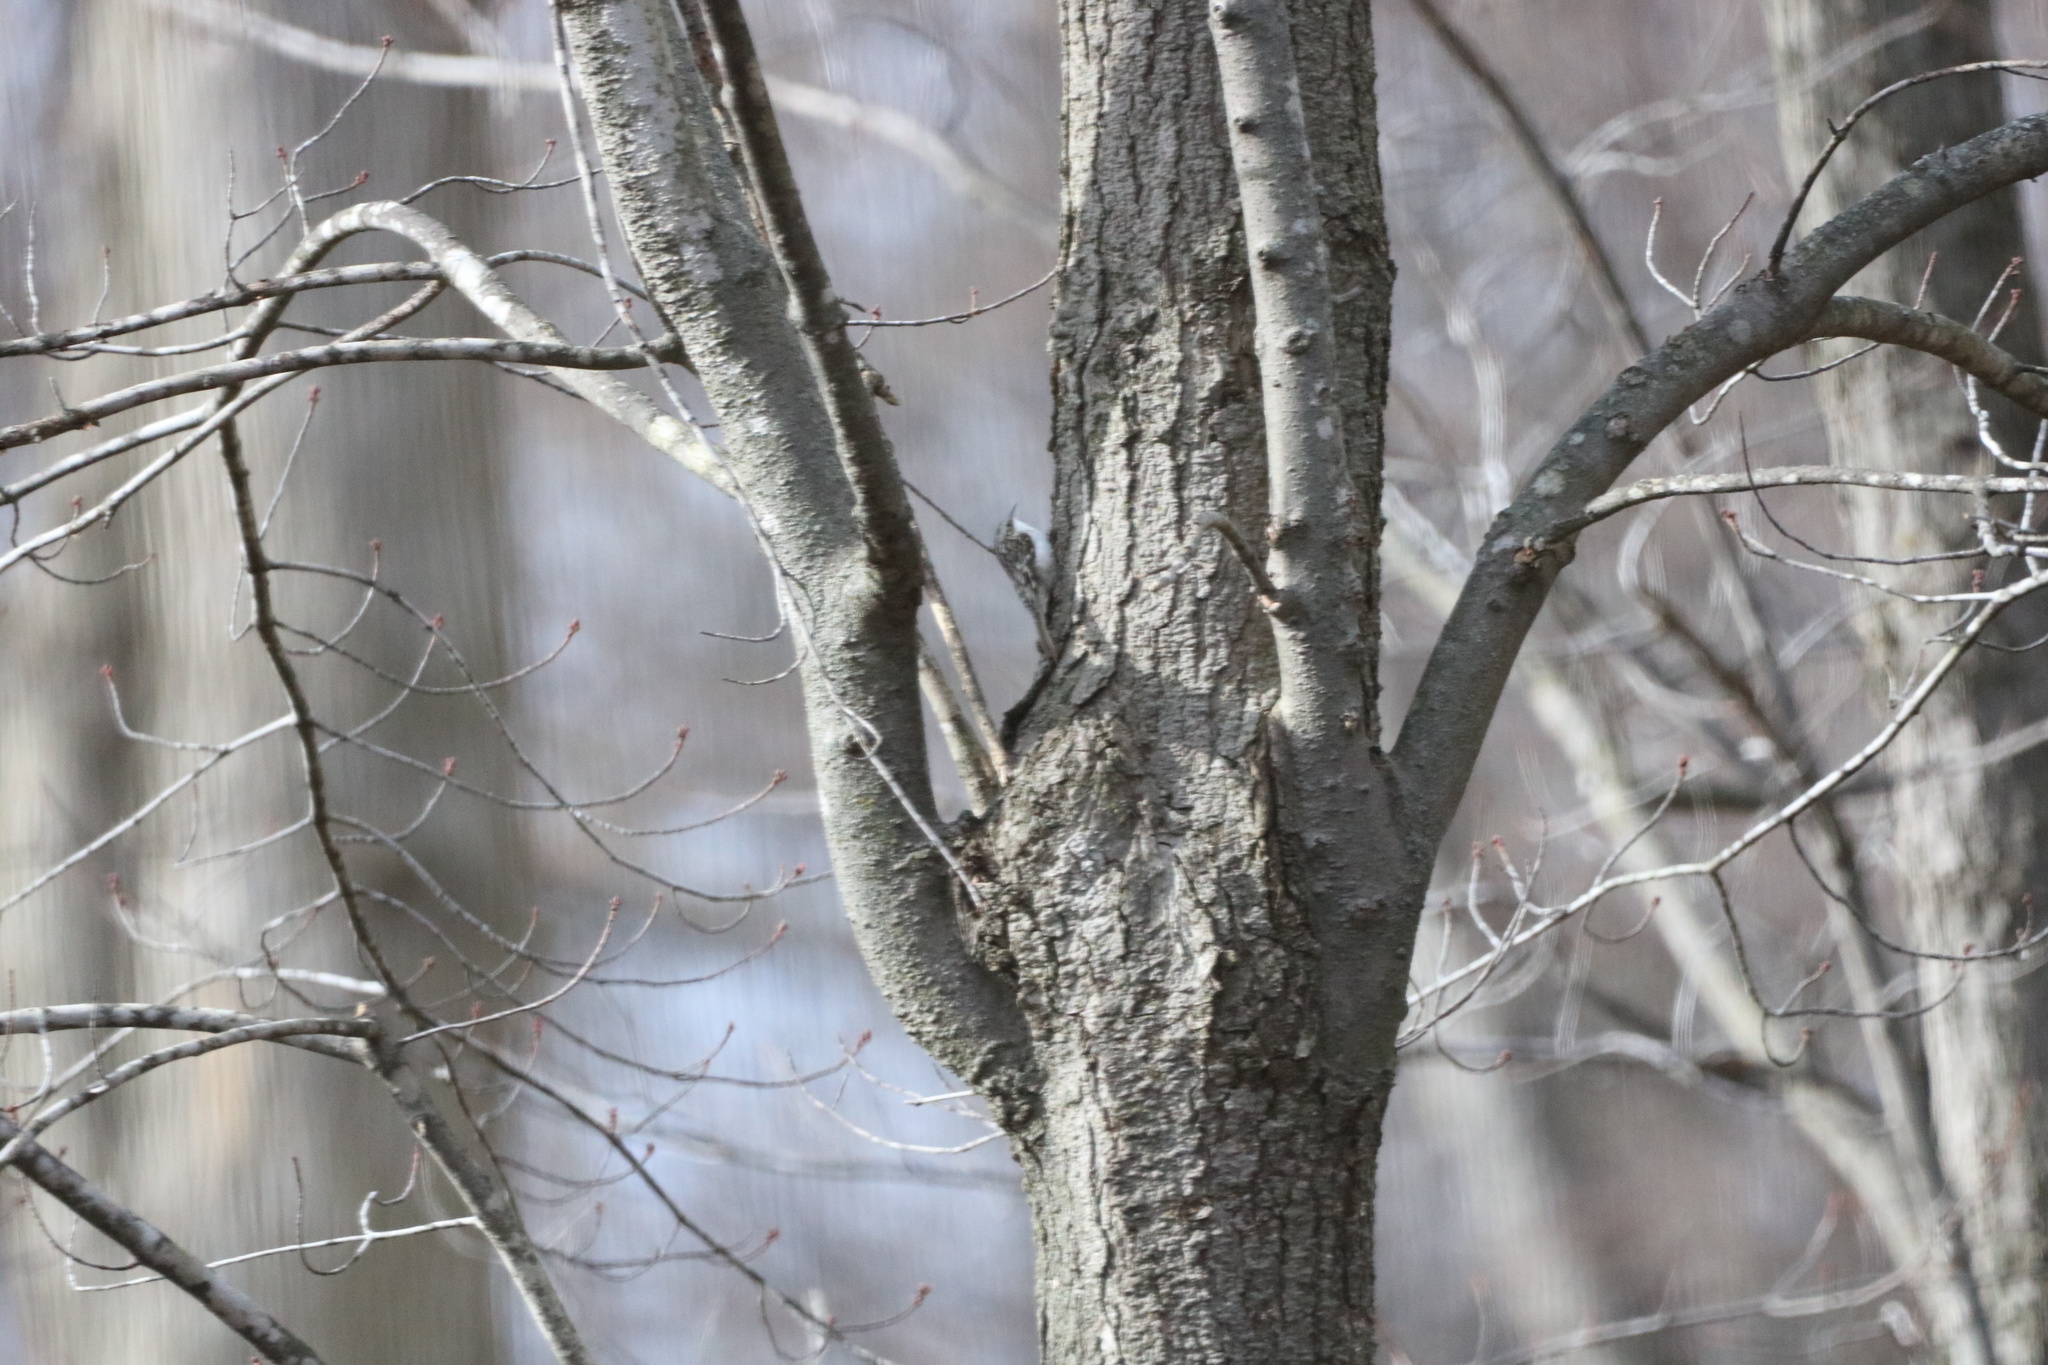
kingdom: Animalia
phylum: Chordata
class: Aves
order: Passeriformes
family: Certhiidae
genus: Certhia
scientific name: Certhia americana
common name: Brown creeper
